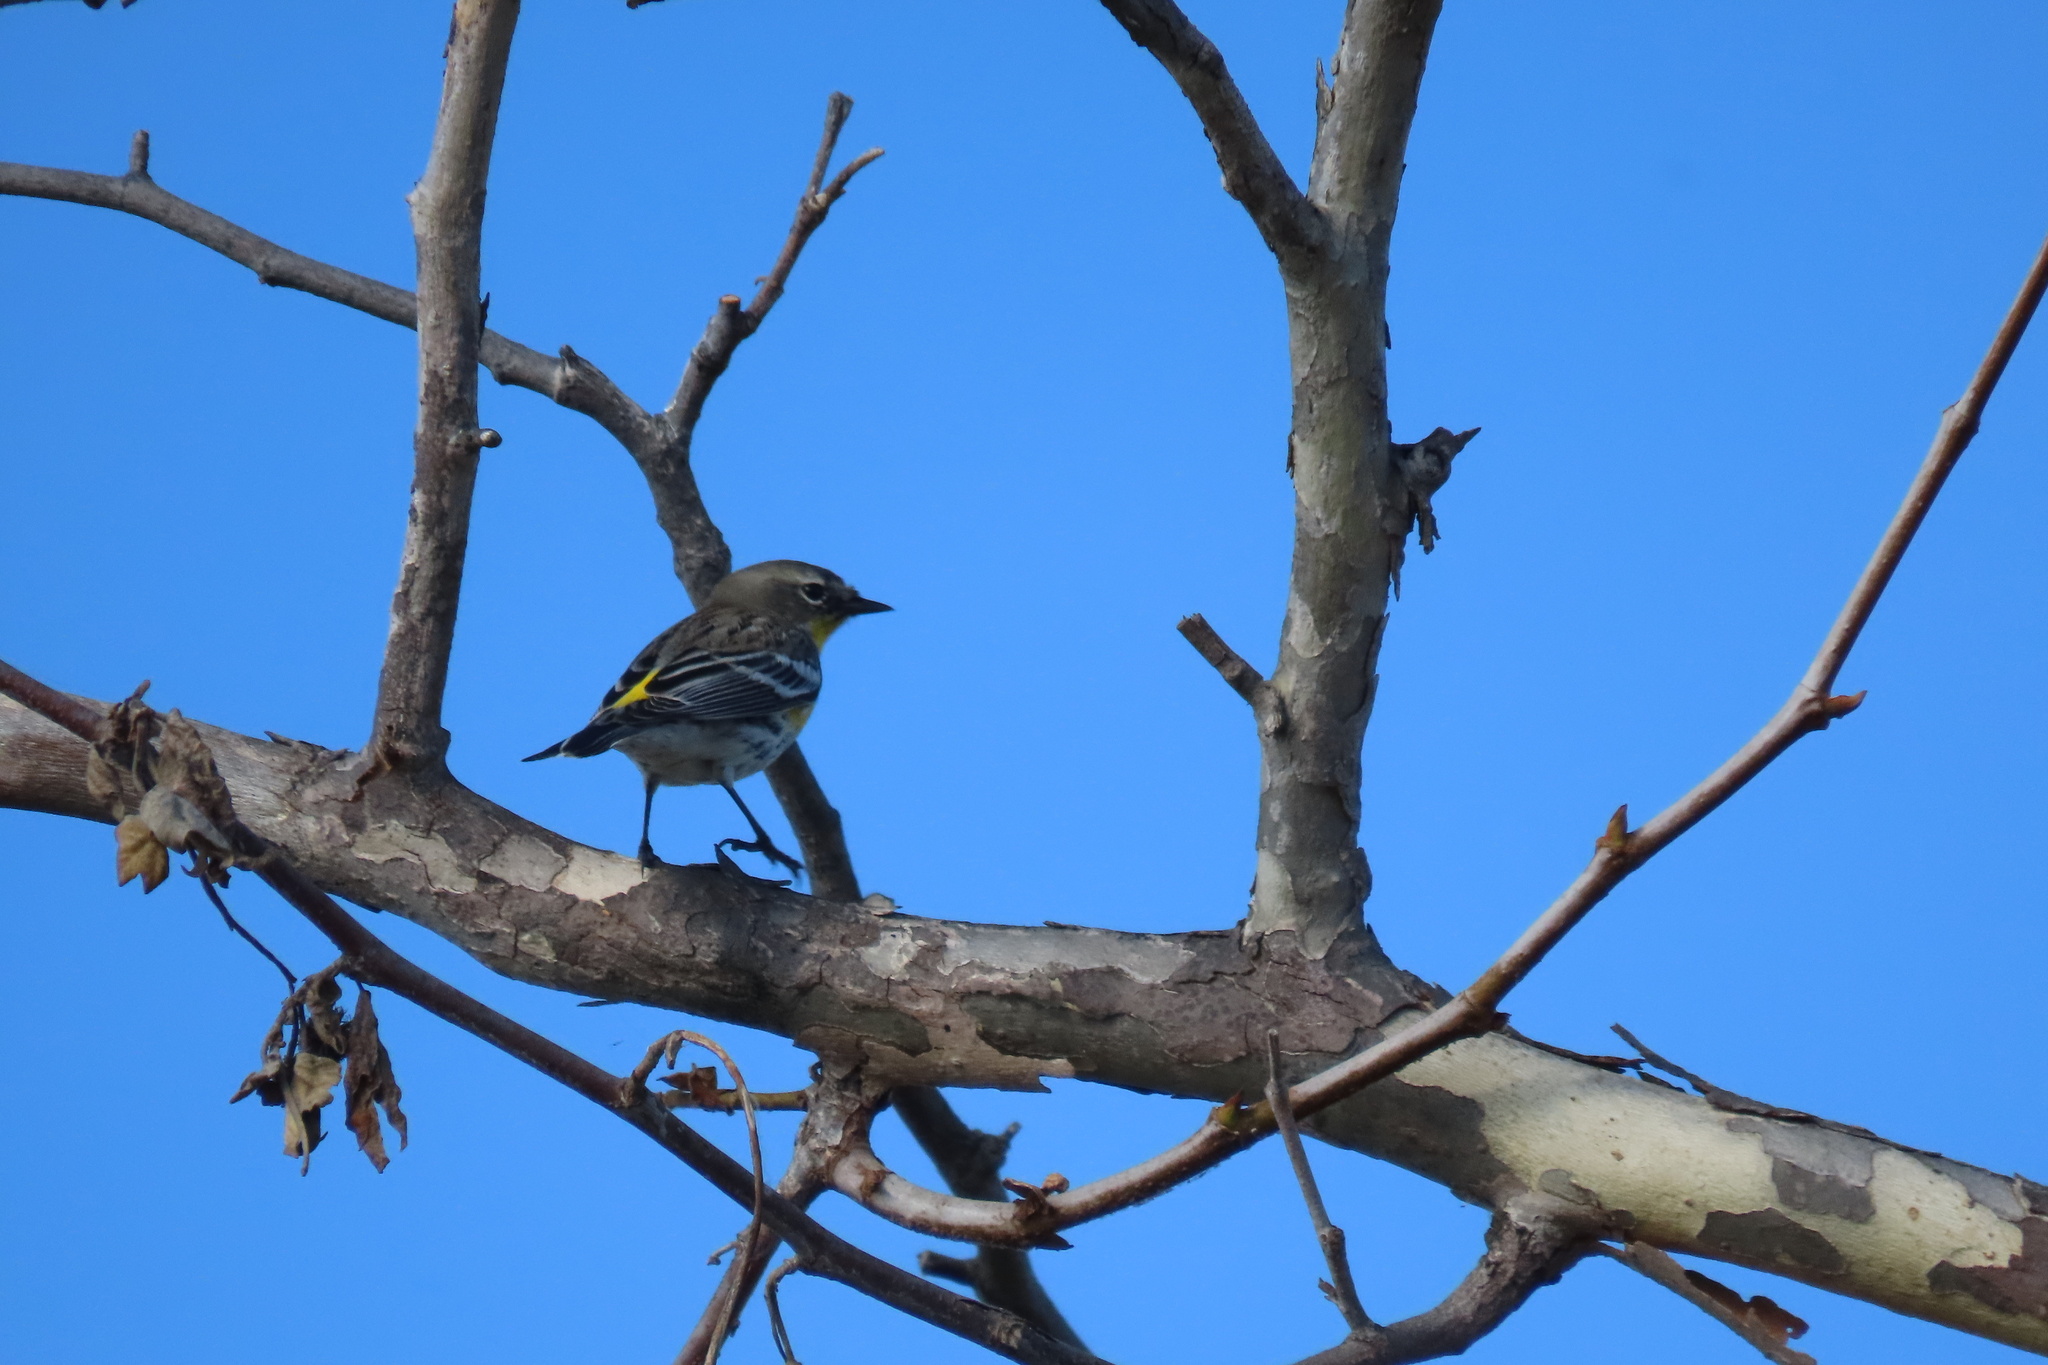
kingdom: Animalia
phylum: Chordata
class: Aves
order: Passeriformes
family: Parulidae
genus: Setophaga
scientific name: Setophaga coronata
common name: Myrtle warbler
